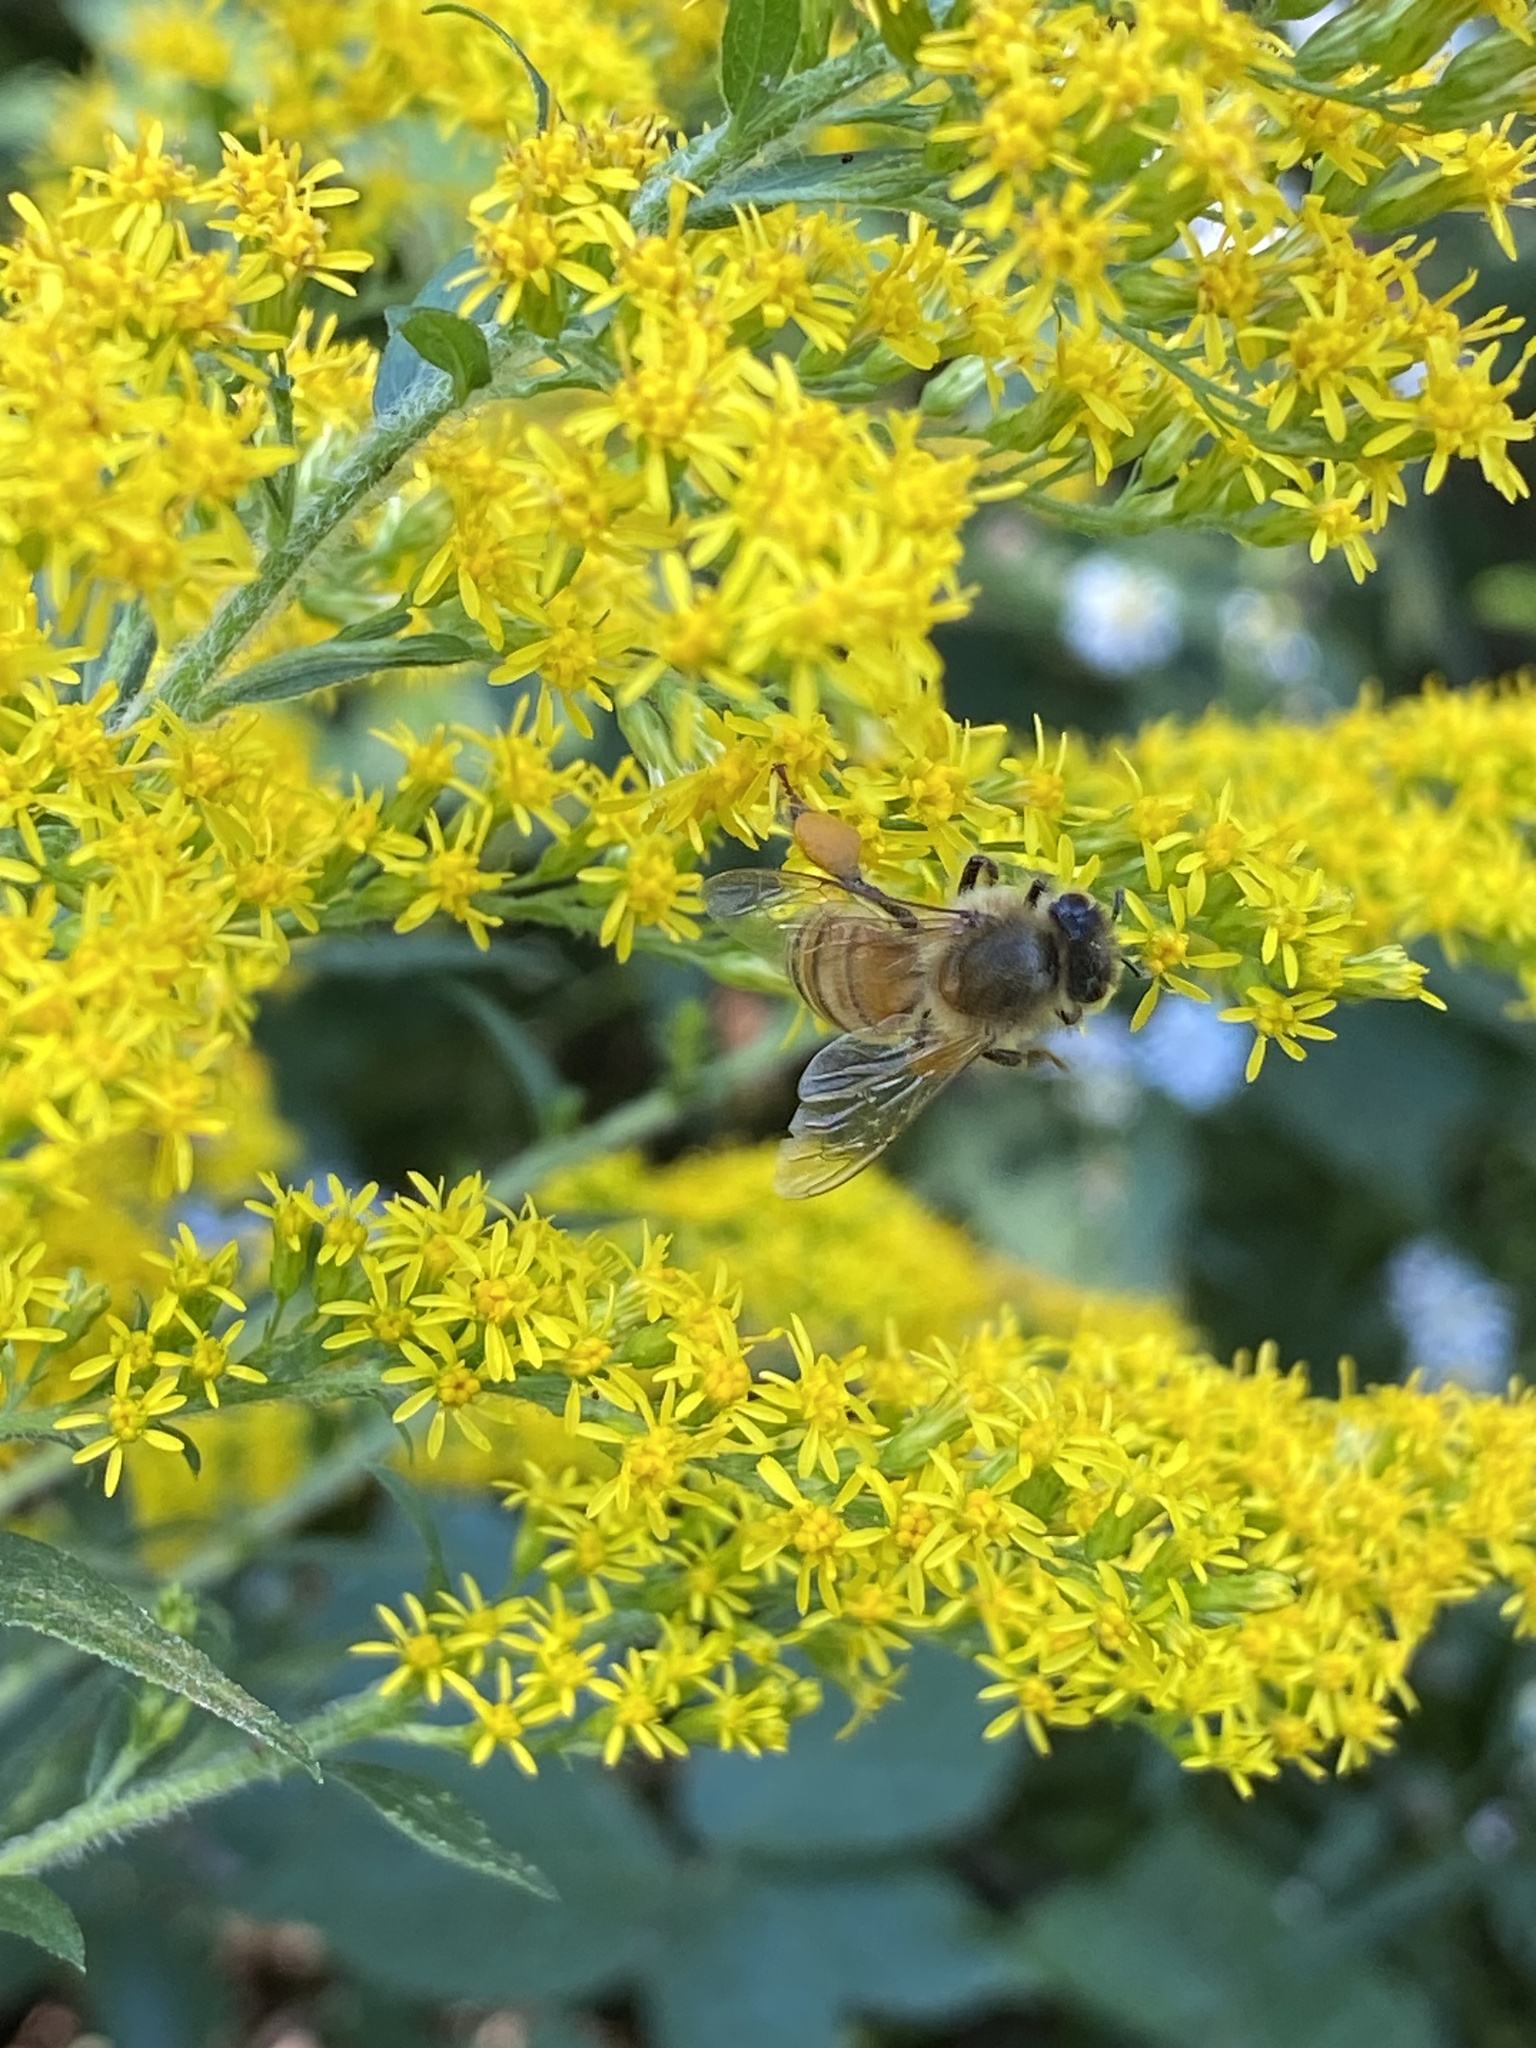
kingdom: Animalia
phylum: Arthropoda
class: Insecta
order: Hymenoptera
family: Apidae
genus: Apis
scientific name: Apis mellifera
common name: Honey bee
